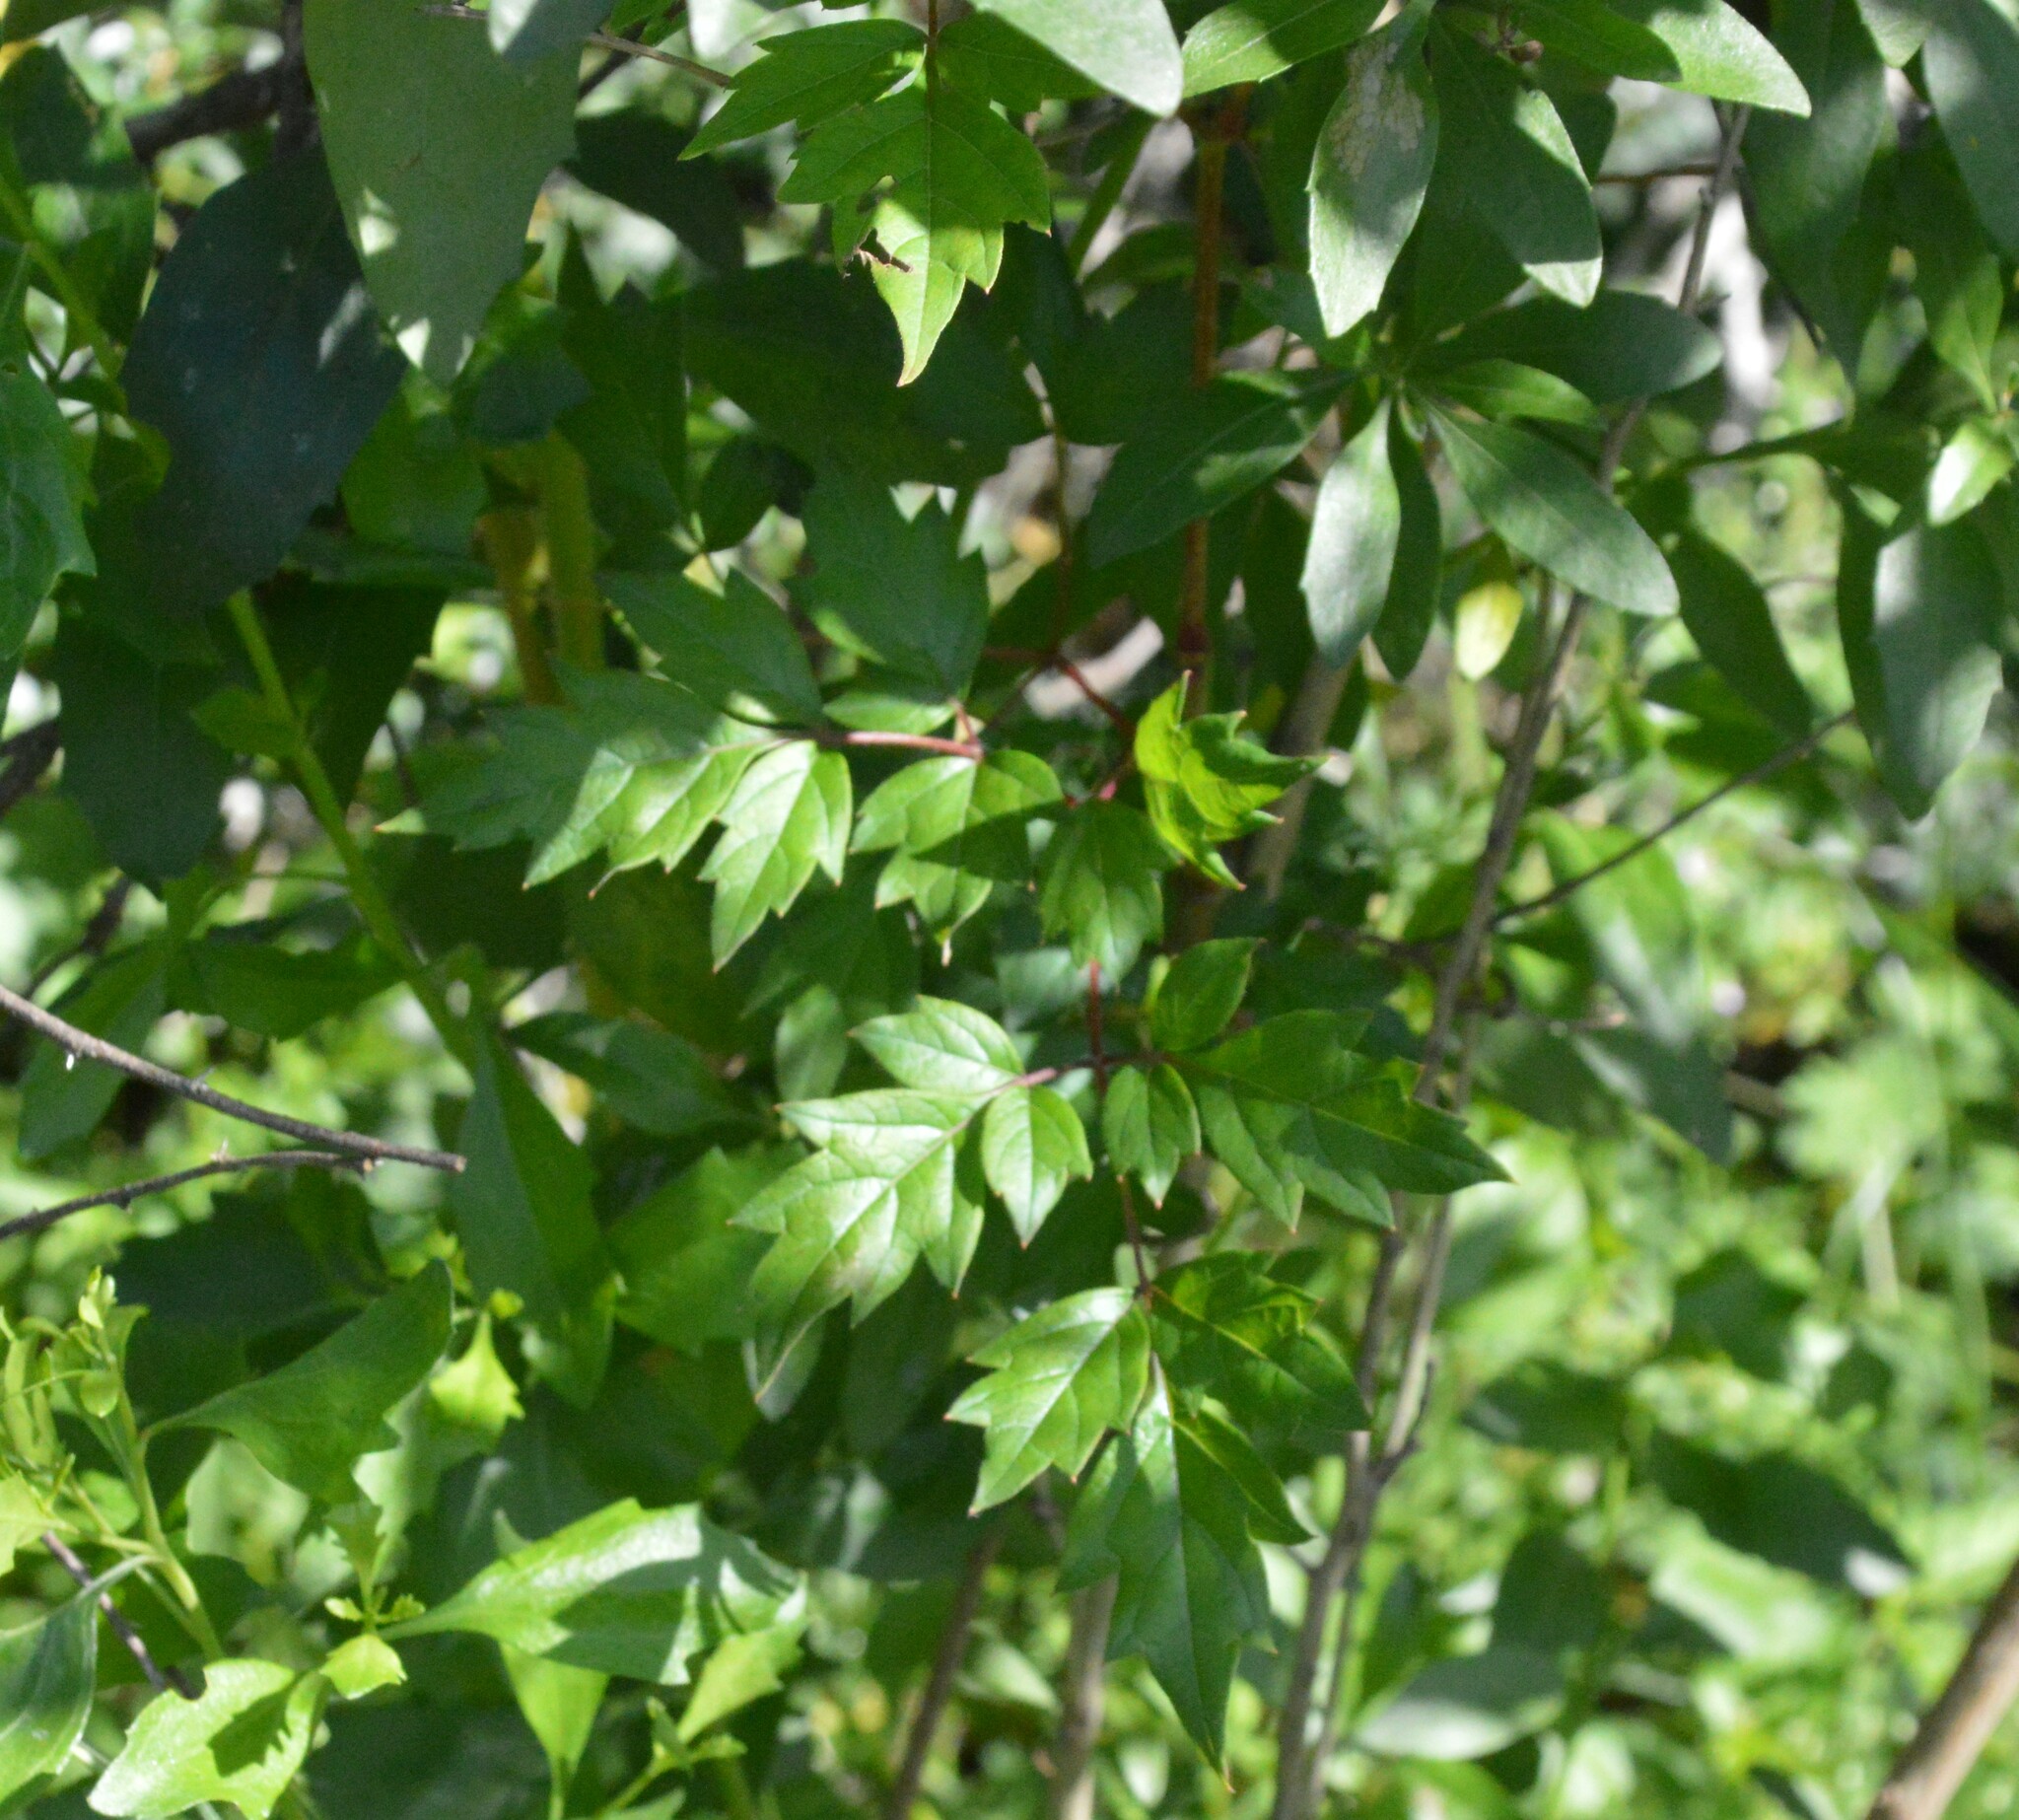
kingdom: Plantae
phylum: Tracheophyta
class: Magnoliopsida
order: Vitales
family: Vitaceae
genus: Nekemias
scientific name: Nekemias arborea
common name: Peppervine
